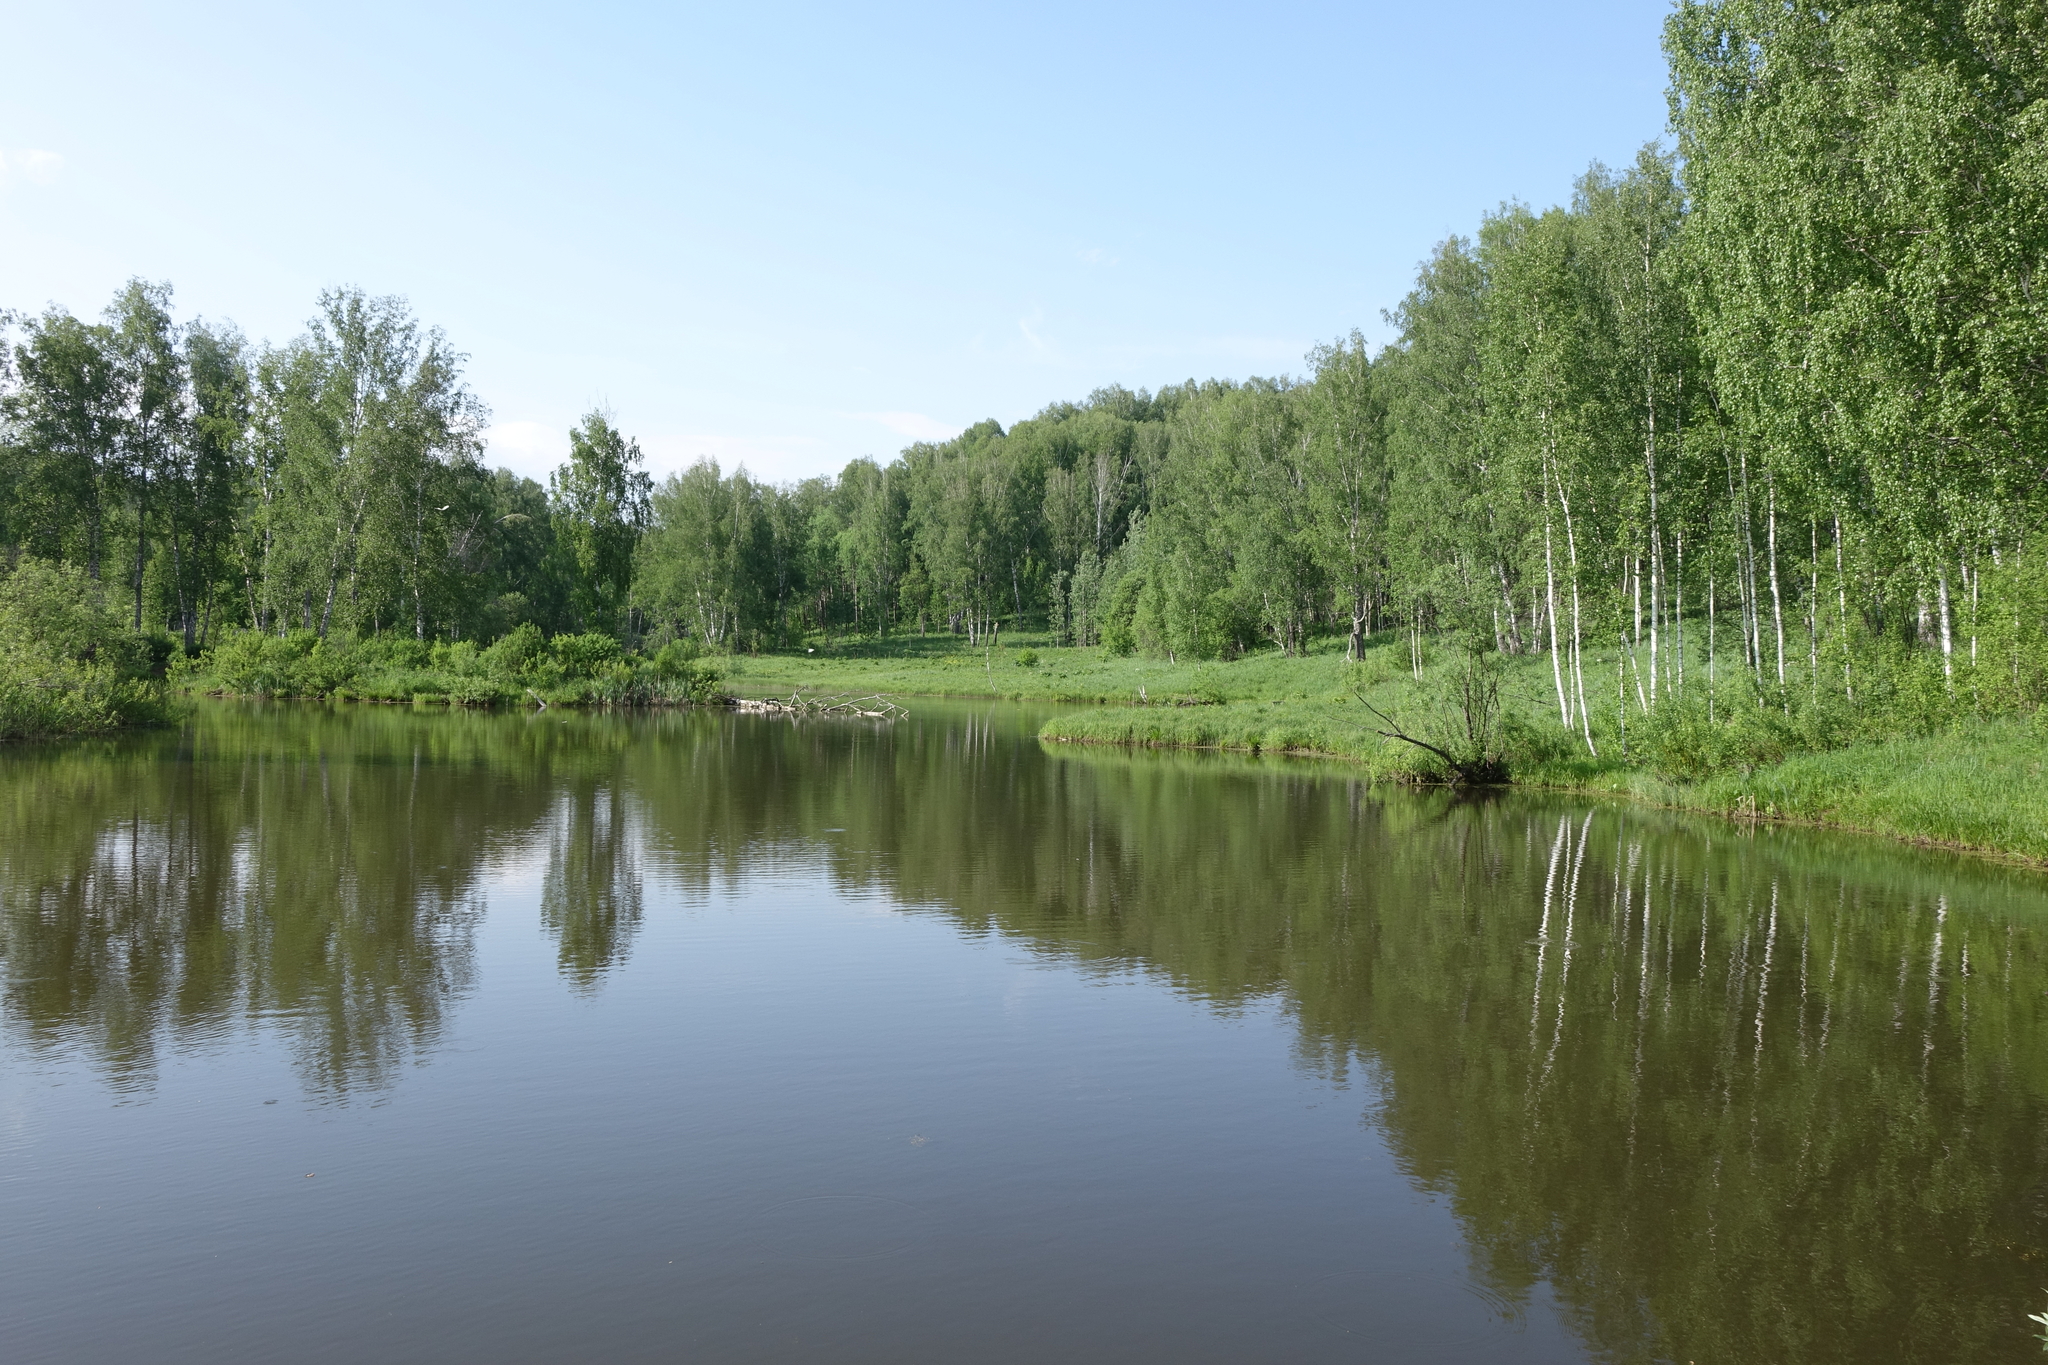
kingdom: Plantae
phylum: Tracheophyta
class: Magnoliopsida
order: Fagales
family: Betulaceae
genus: Betula
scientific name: Betula pendula
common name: Silver birch
